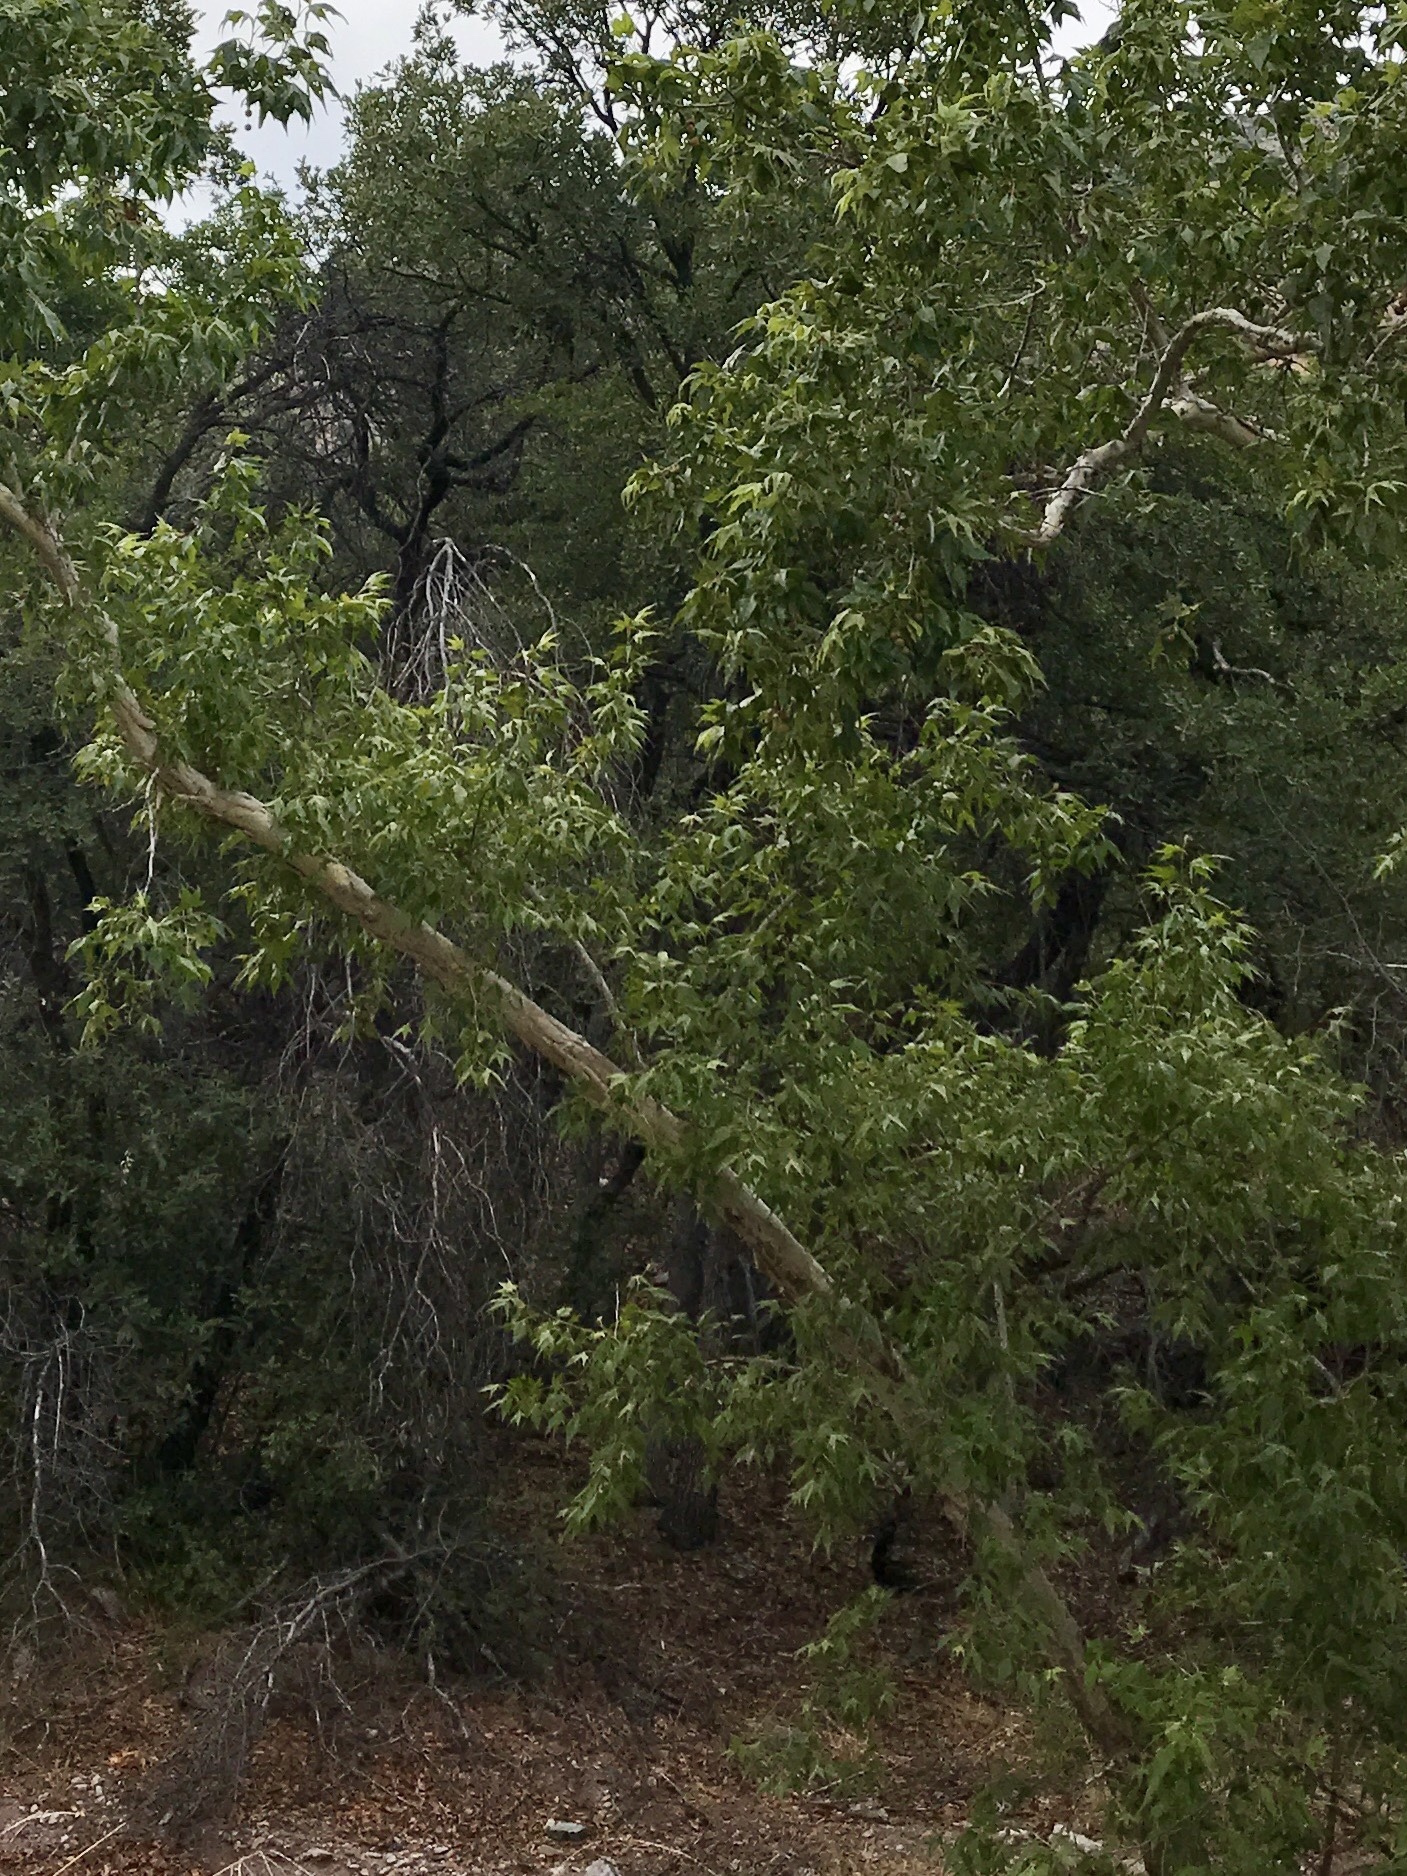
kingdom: Plantae
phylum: Tracheophyta
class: Magnoliopsida
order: Proteales
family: Platanaceae
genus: Platanus
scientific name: Platanus wrightii
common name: Arizona sycamore
